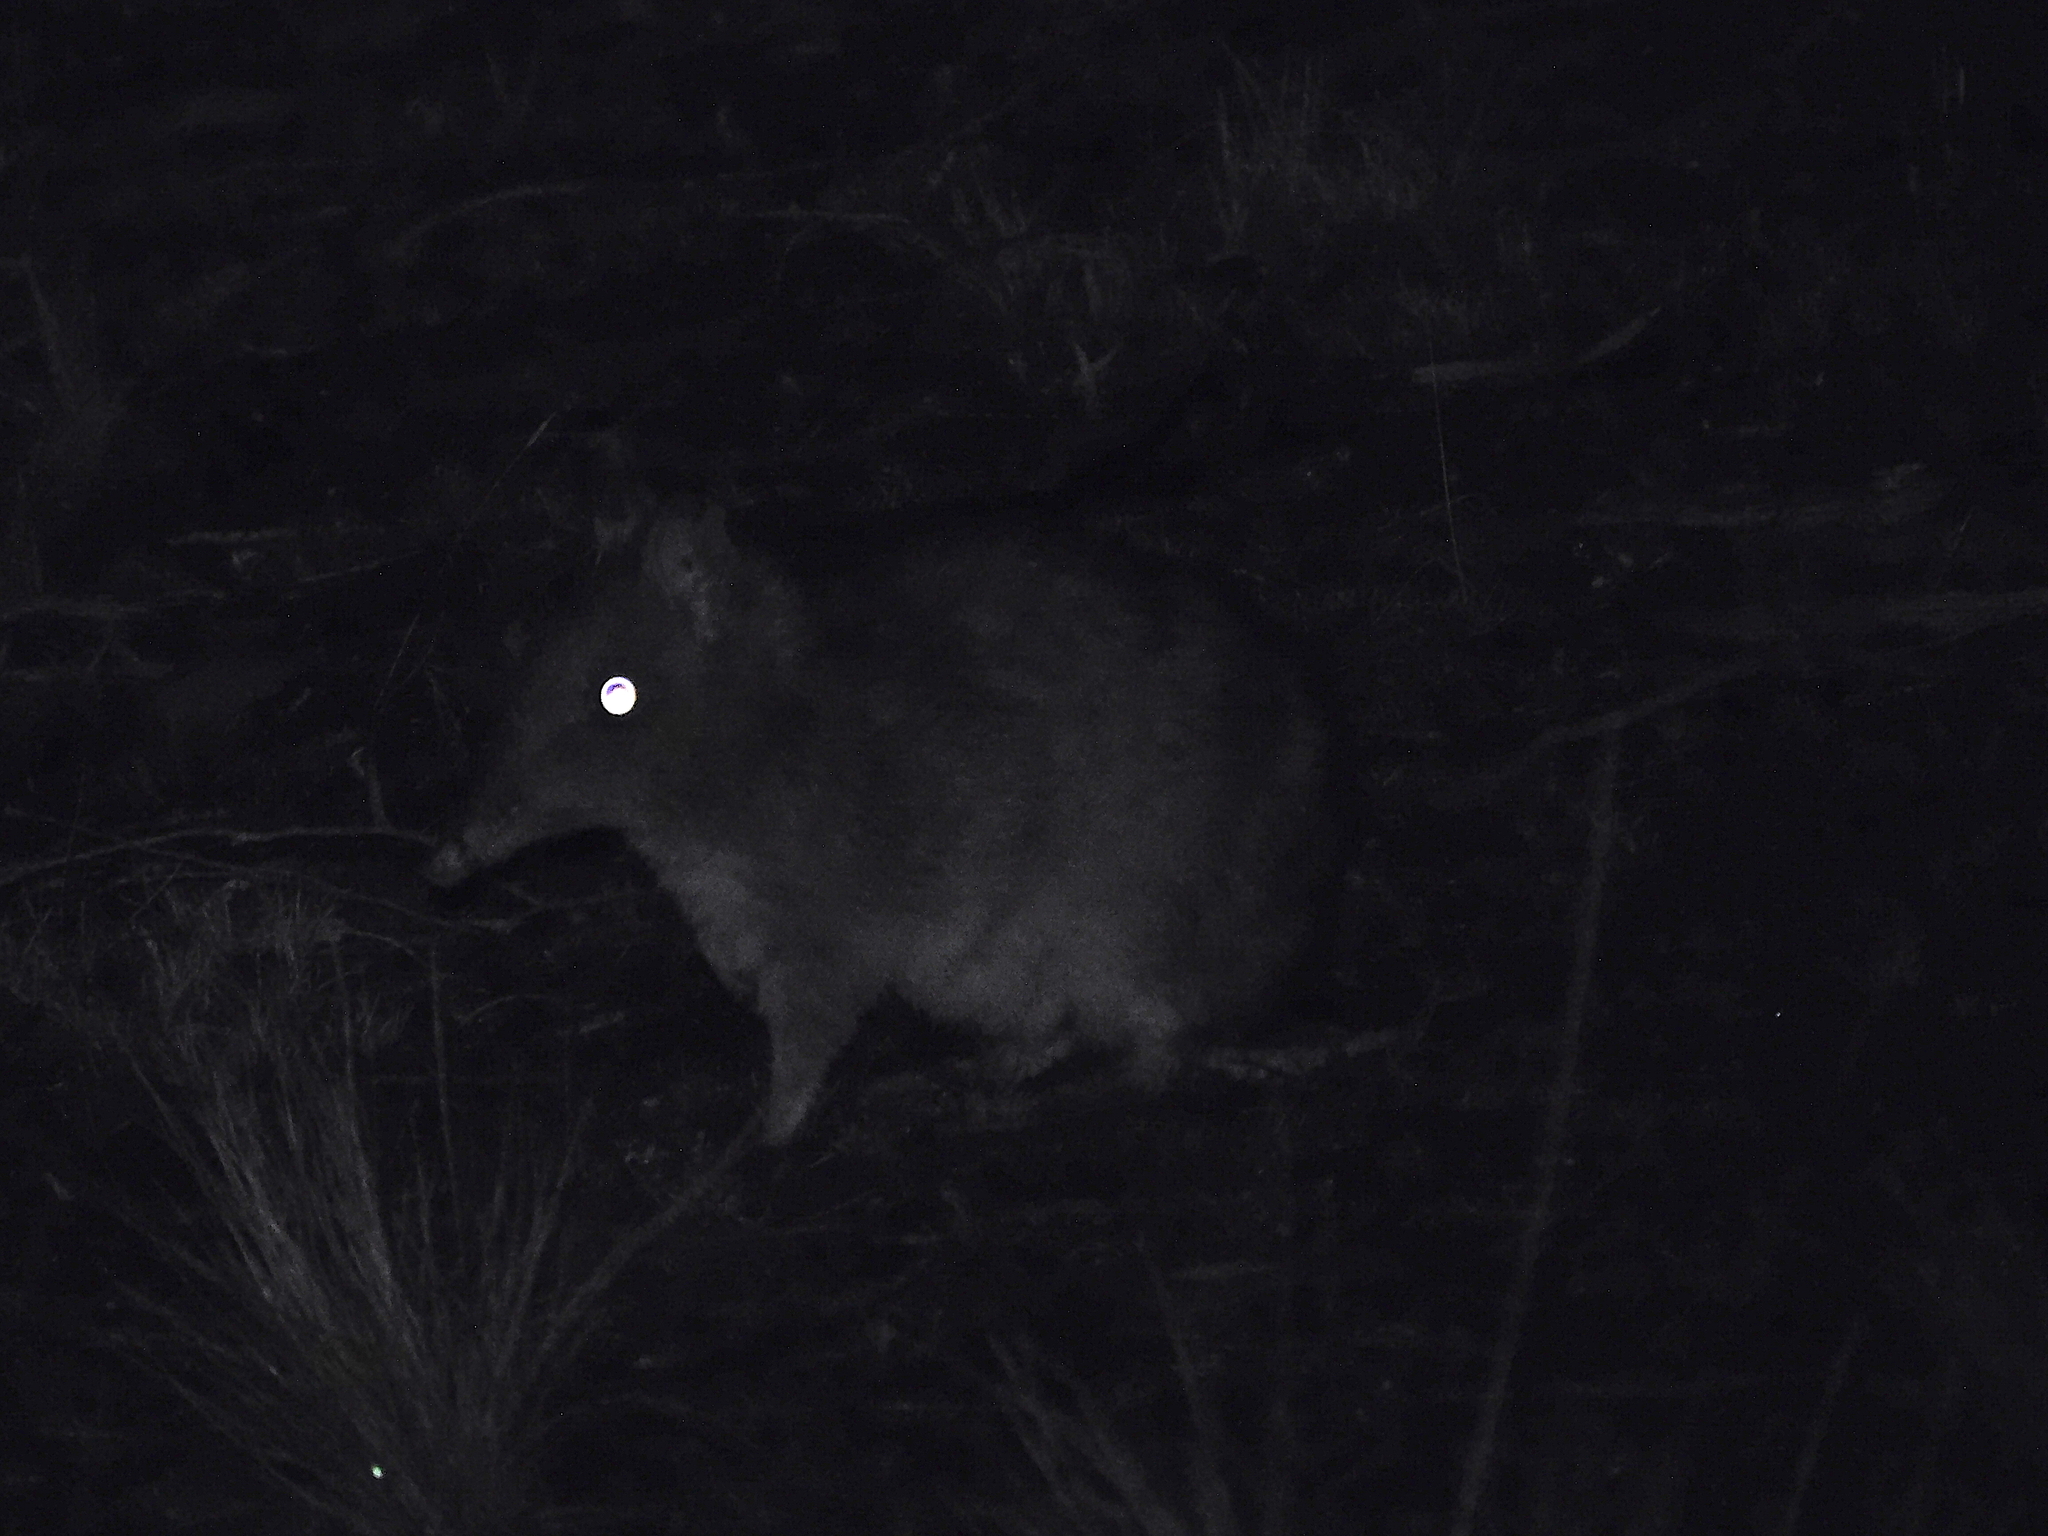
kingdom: Animalia
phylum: Chordata
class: Mammalia
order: Peramelemorphia
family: Peramelidae
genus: Perameles
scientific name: Perameles gunnii
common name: Eastern barred bandicoot
